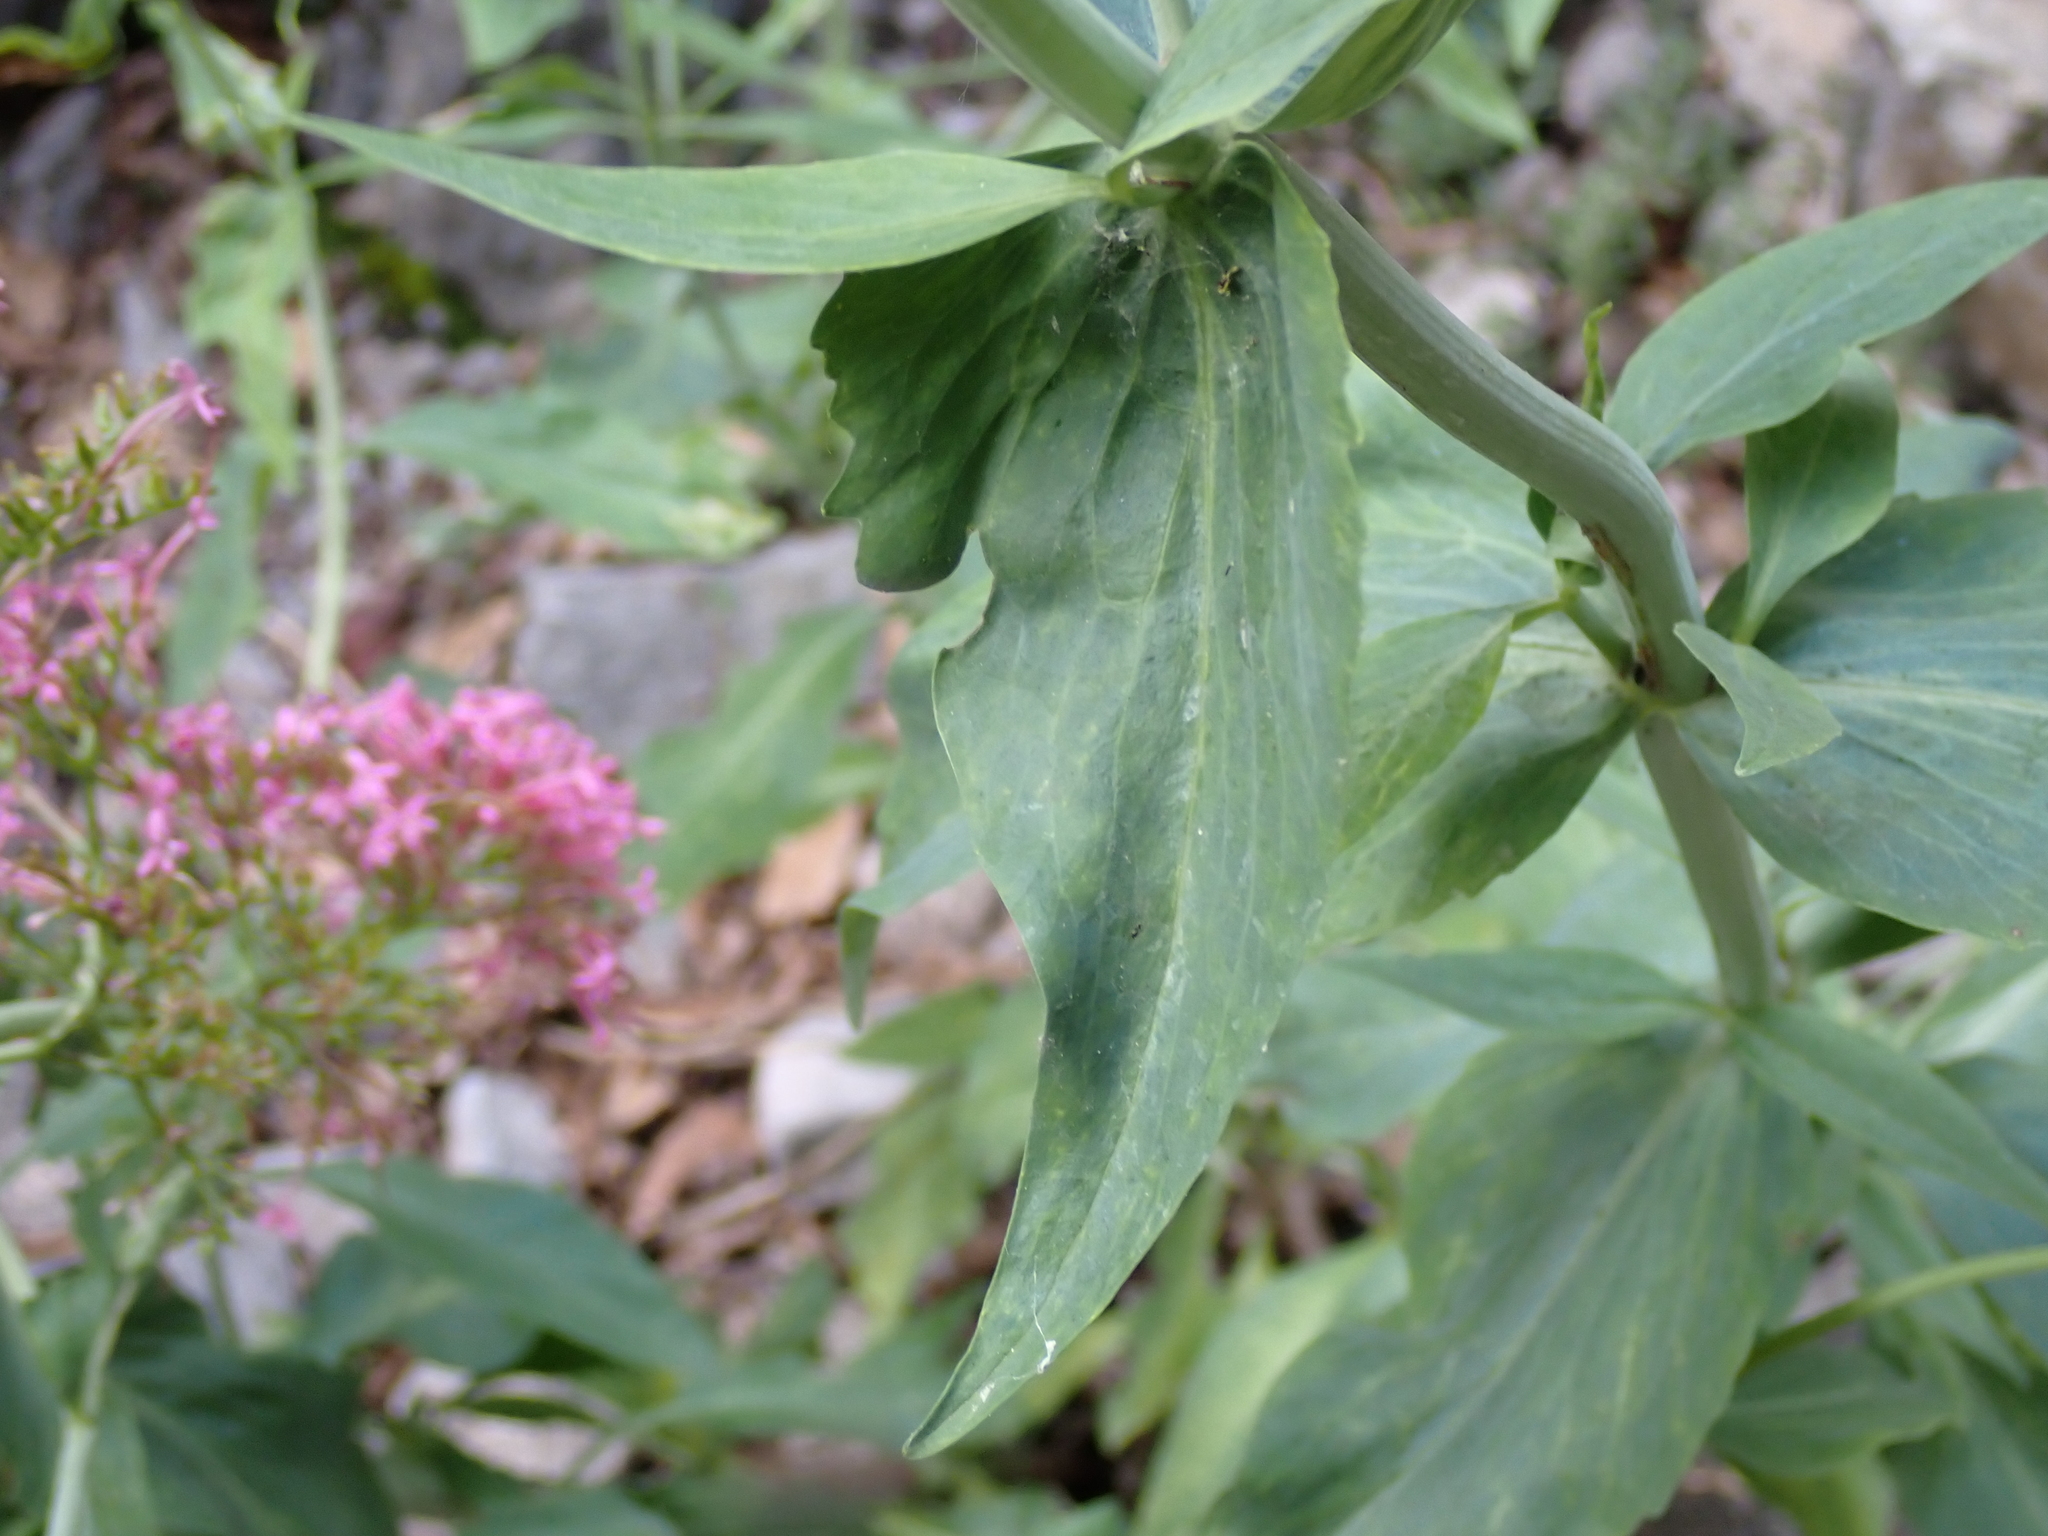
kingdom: Plantae
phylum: Tracheophyta
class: Magnoliopsida
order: Dipsacales
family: Caprifoliaceae
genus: Centranthus
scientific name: Centranthus ruber
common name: Red valerian
